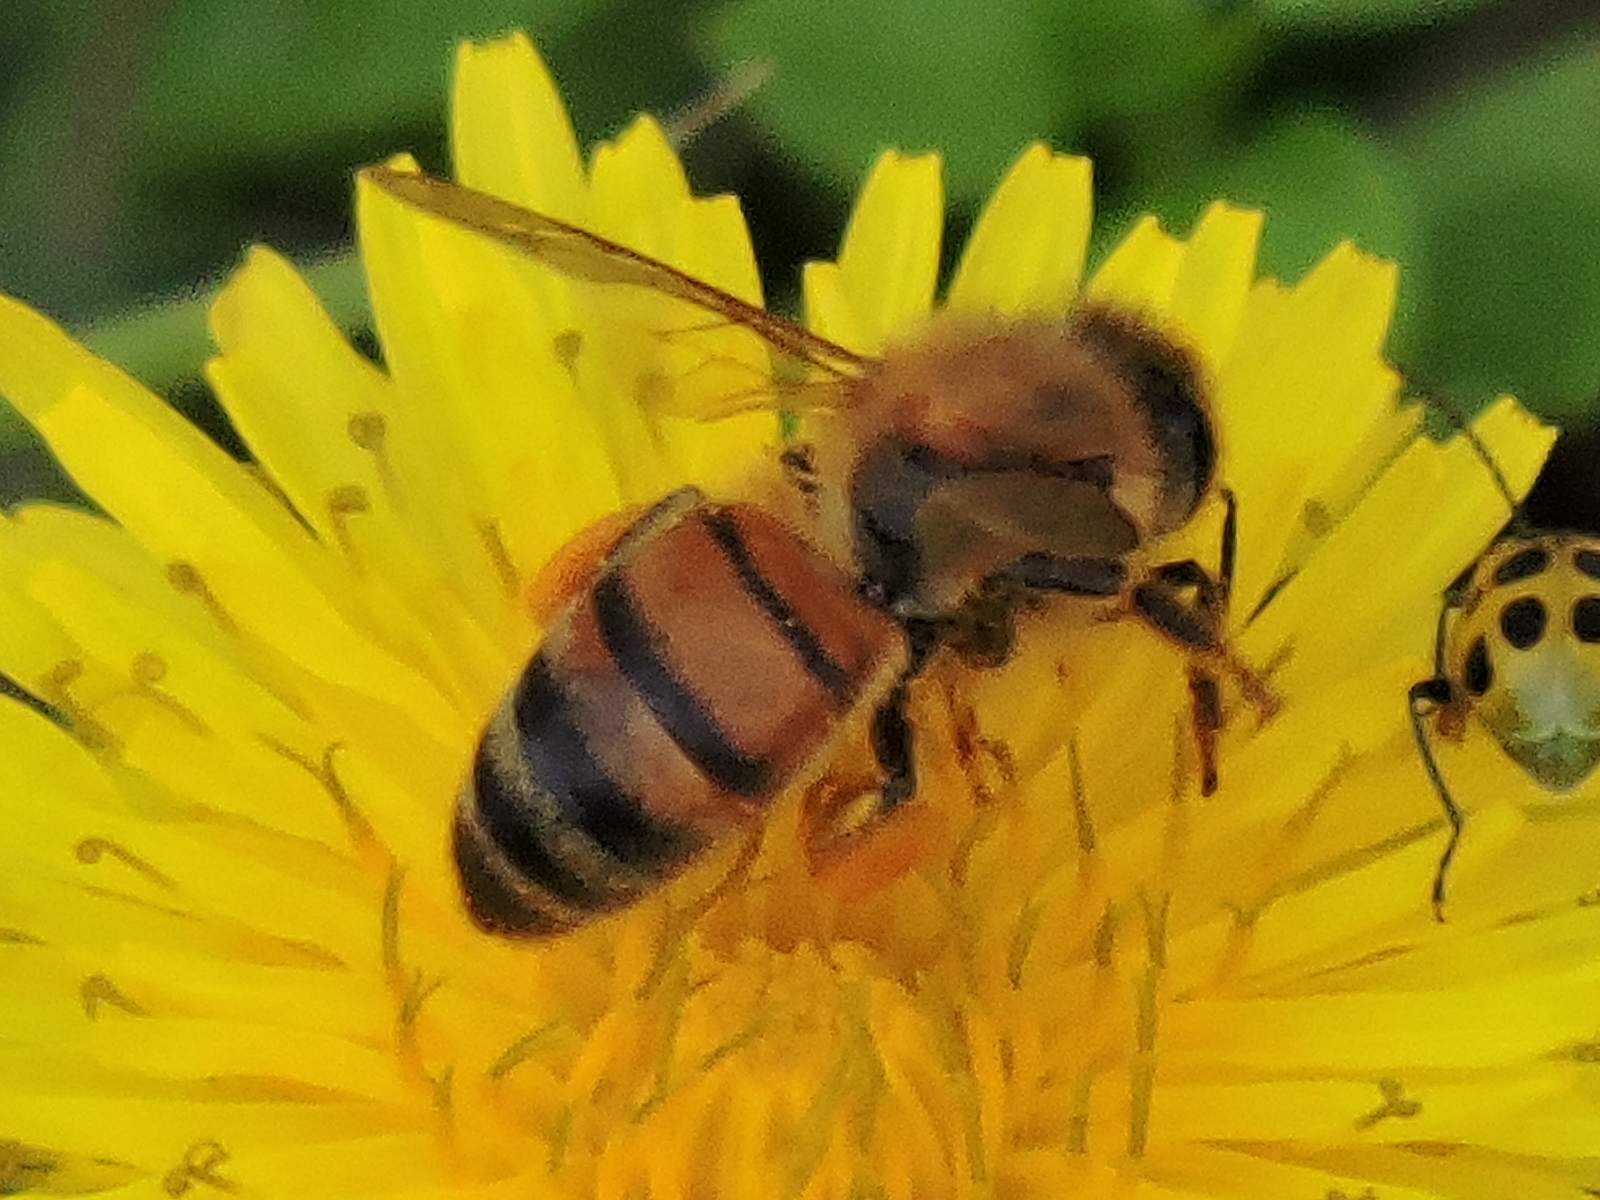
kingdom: Animalia
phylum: Arthropoda
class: Insecta
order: Hymenoptera
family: Apidae
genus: Apis
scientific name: Apis mellifera
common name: Honey bee
